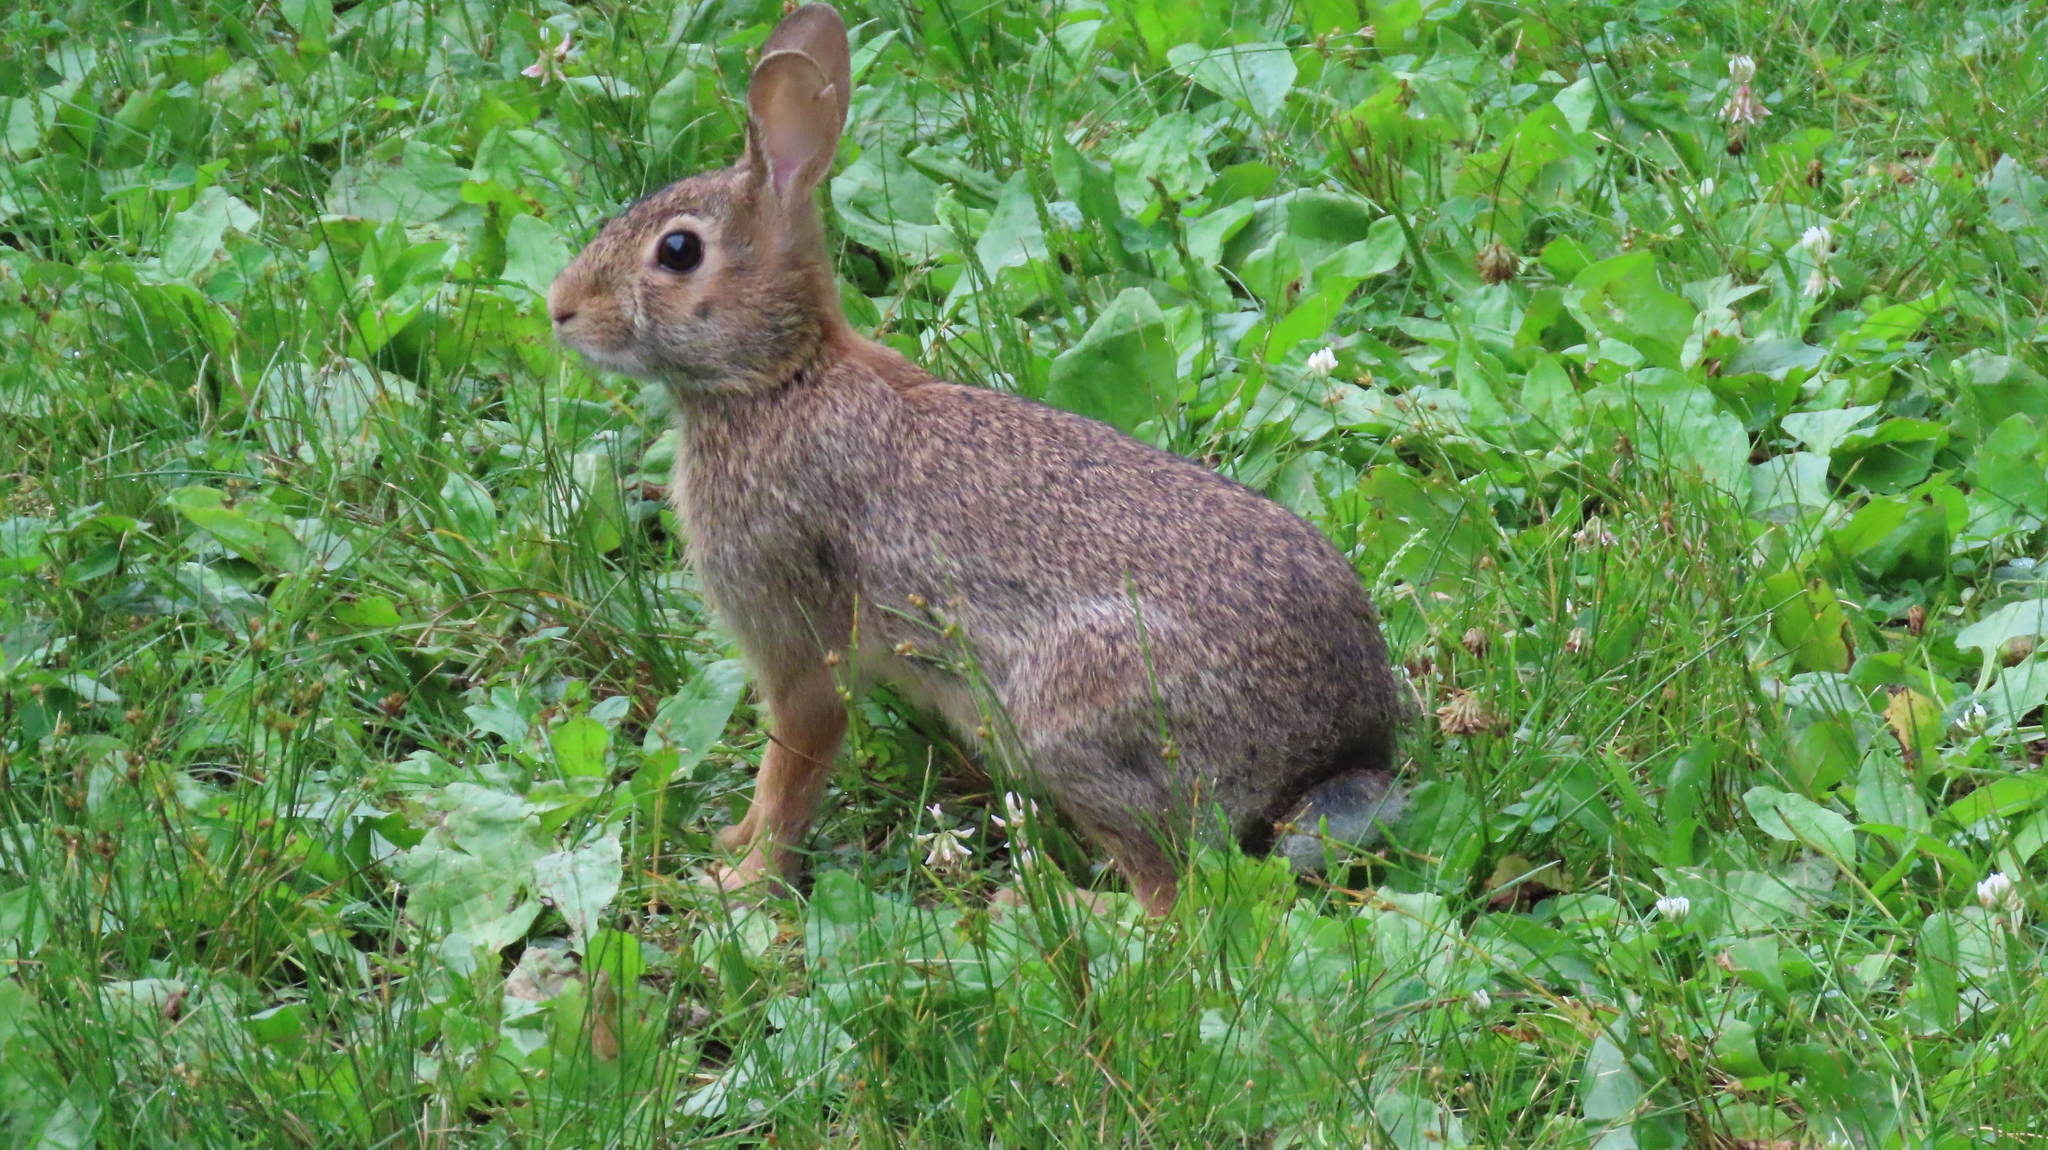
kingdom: Animalia
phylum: Chordata
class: Mammalia
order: Lagomorpha
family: Leporidae
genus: Sylvilagus
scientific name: Sylvilagus floridanus
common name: Eastern cottontail
